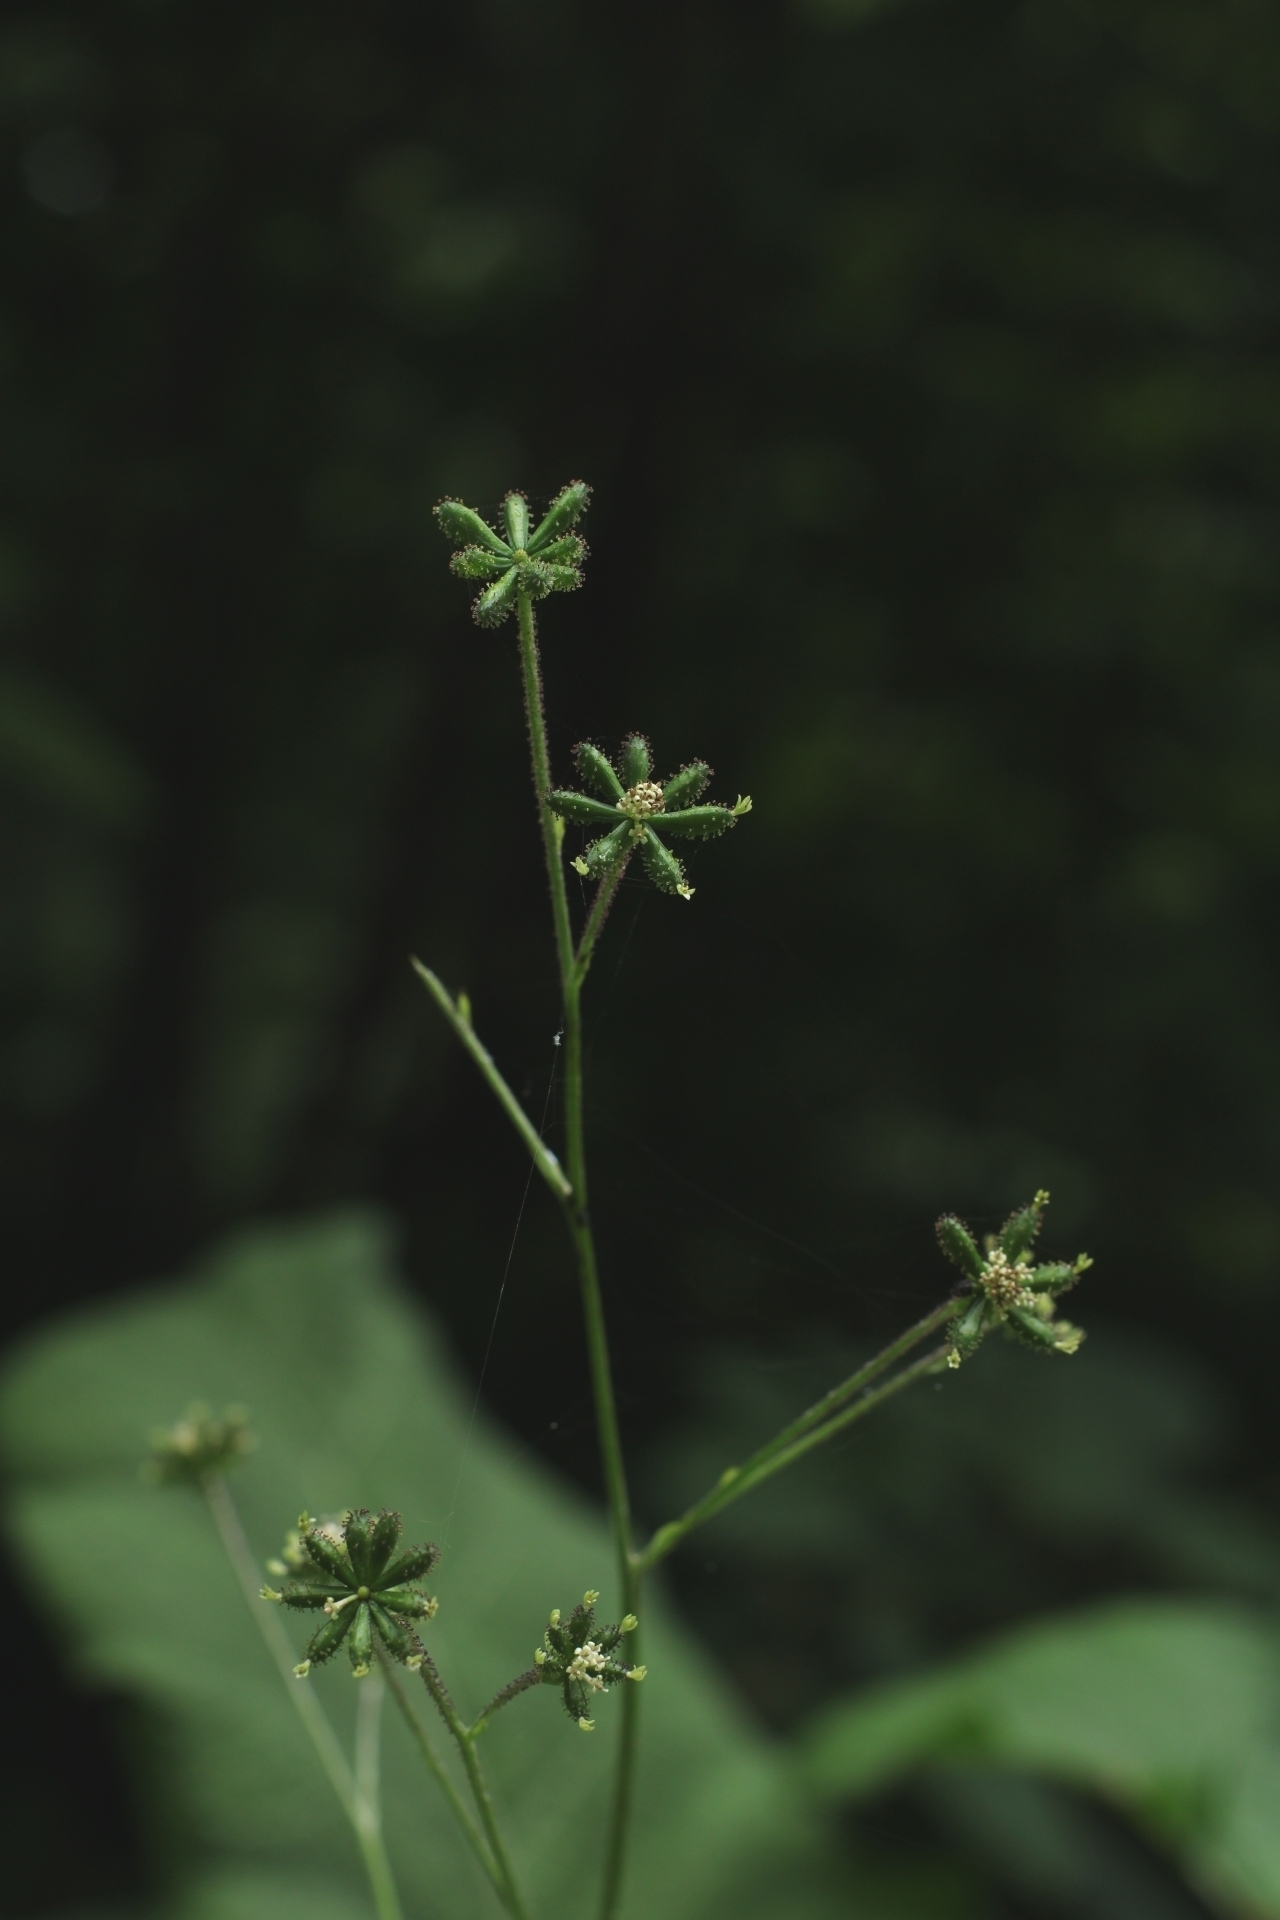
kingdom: Plantae
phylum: Tracheophyta
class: Magnoliopsida
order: Asterales
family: Asteraceae
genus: Adenocaulon
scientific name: Adenocaulon himalaicum
